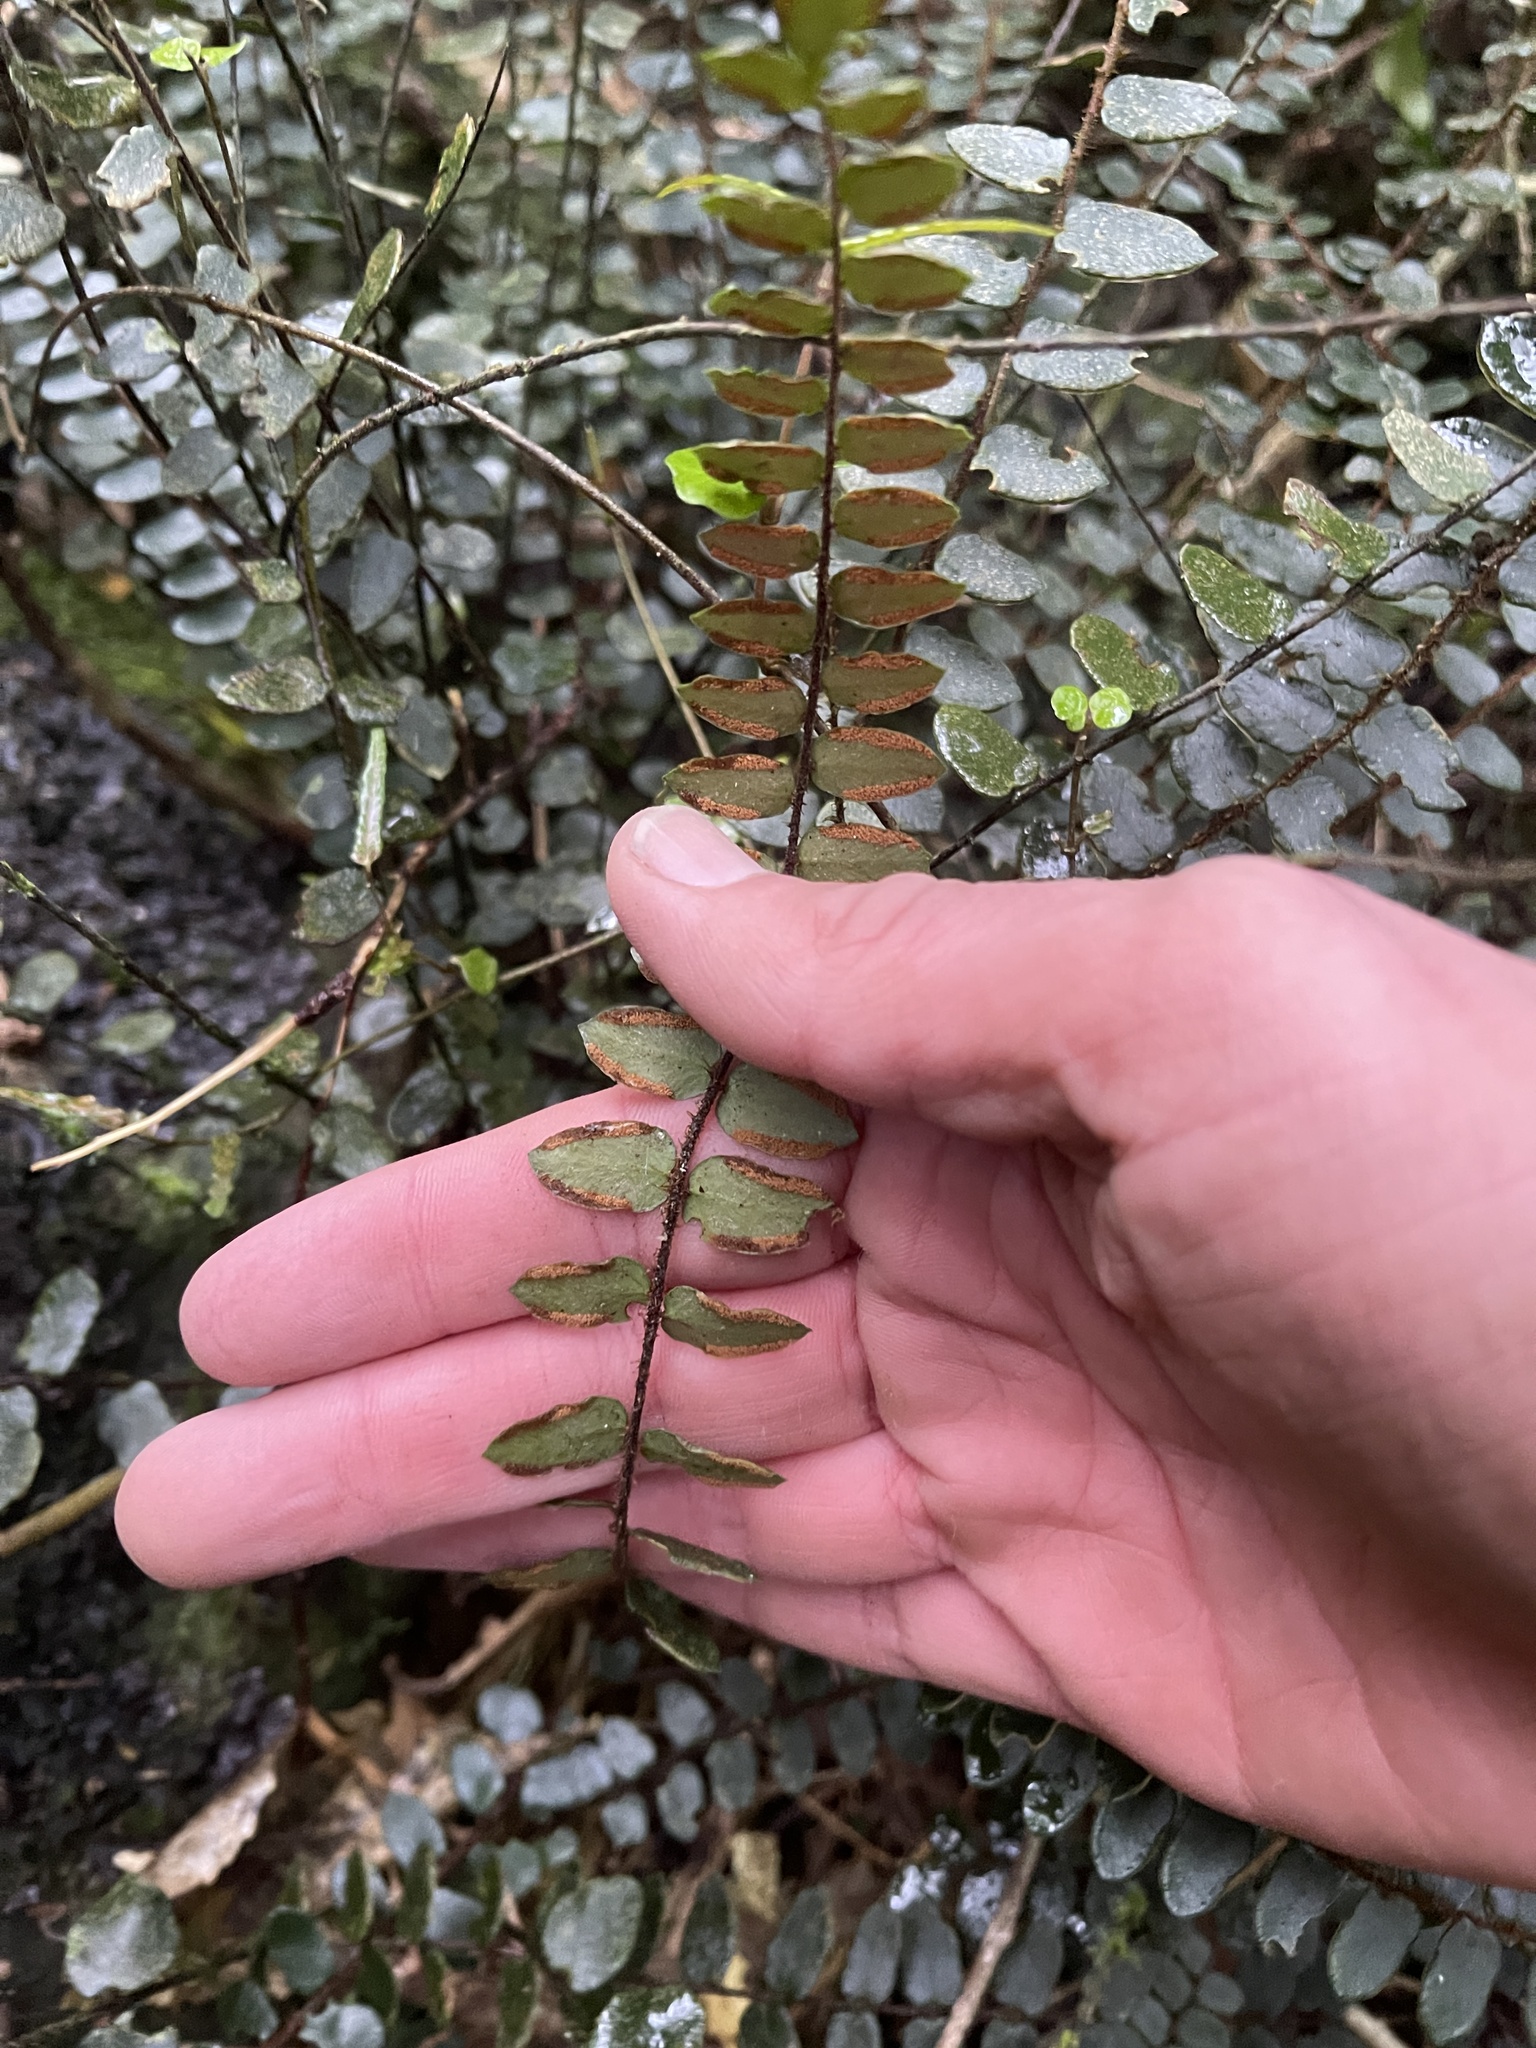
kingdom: Plantae
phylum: Tracheophyta
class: Polypodiopsida
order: Polypodiales
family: Pteridaceae
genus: Pellaea
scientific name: Pellaea rotundifolia
